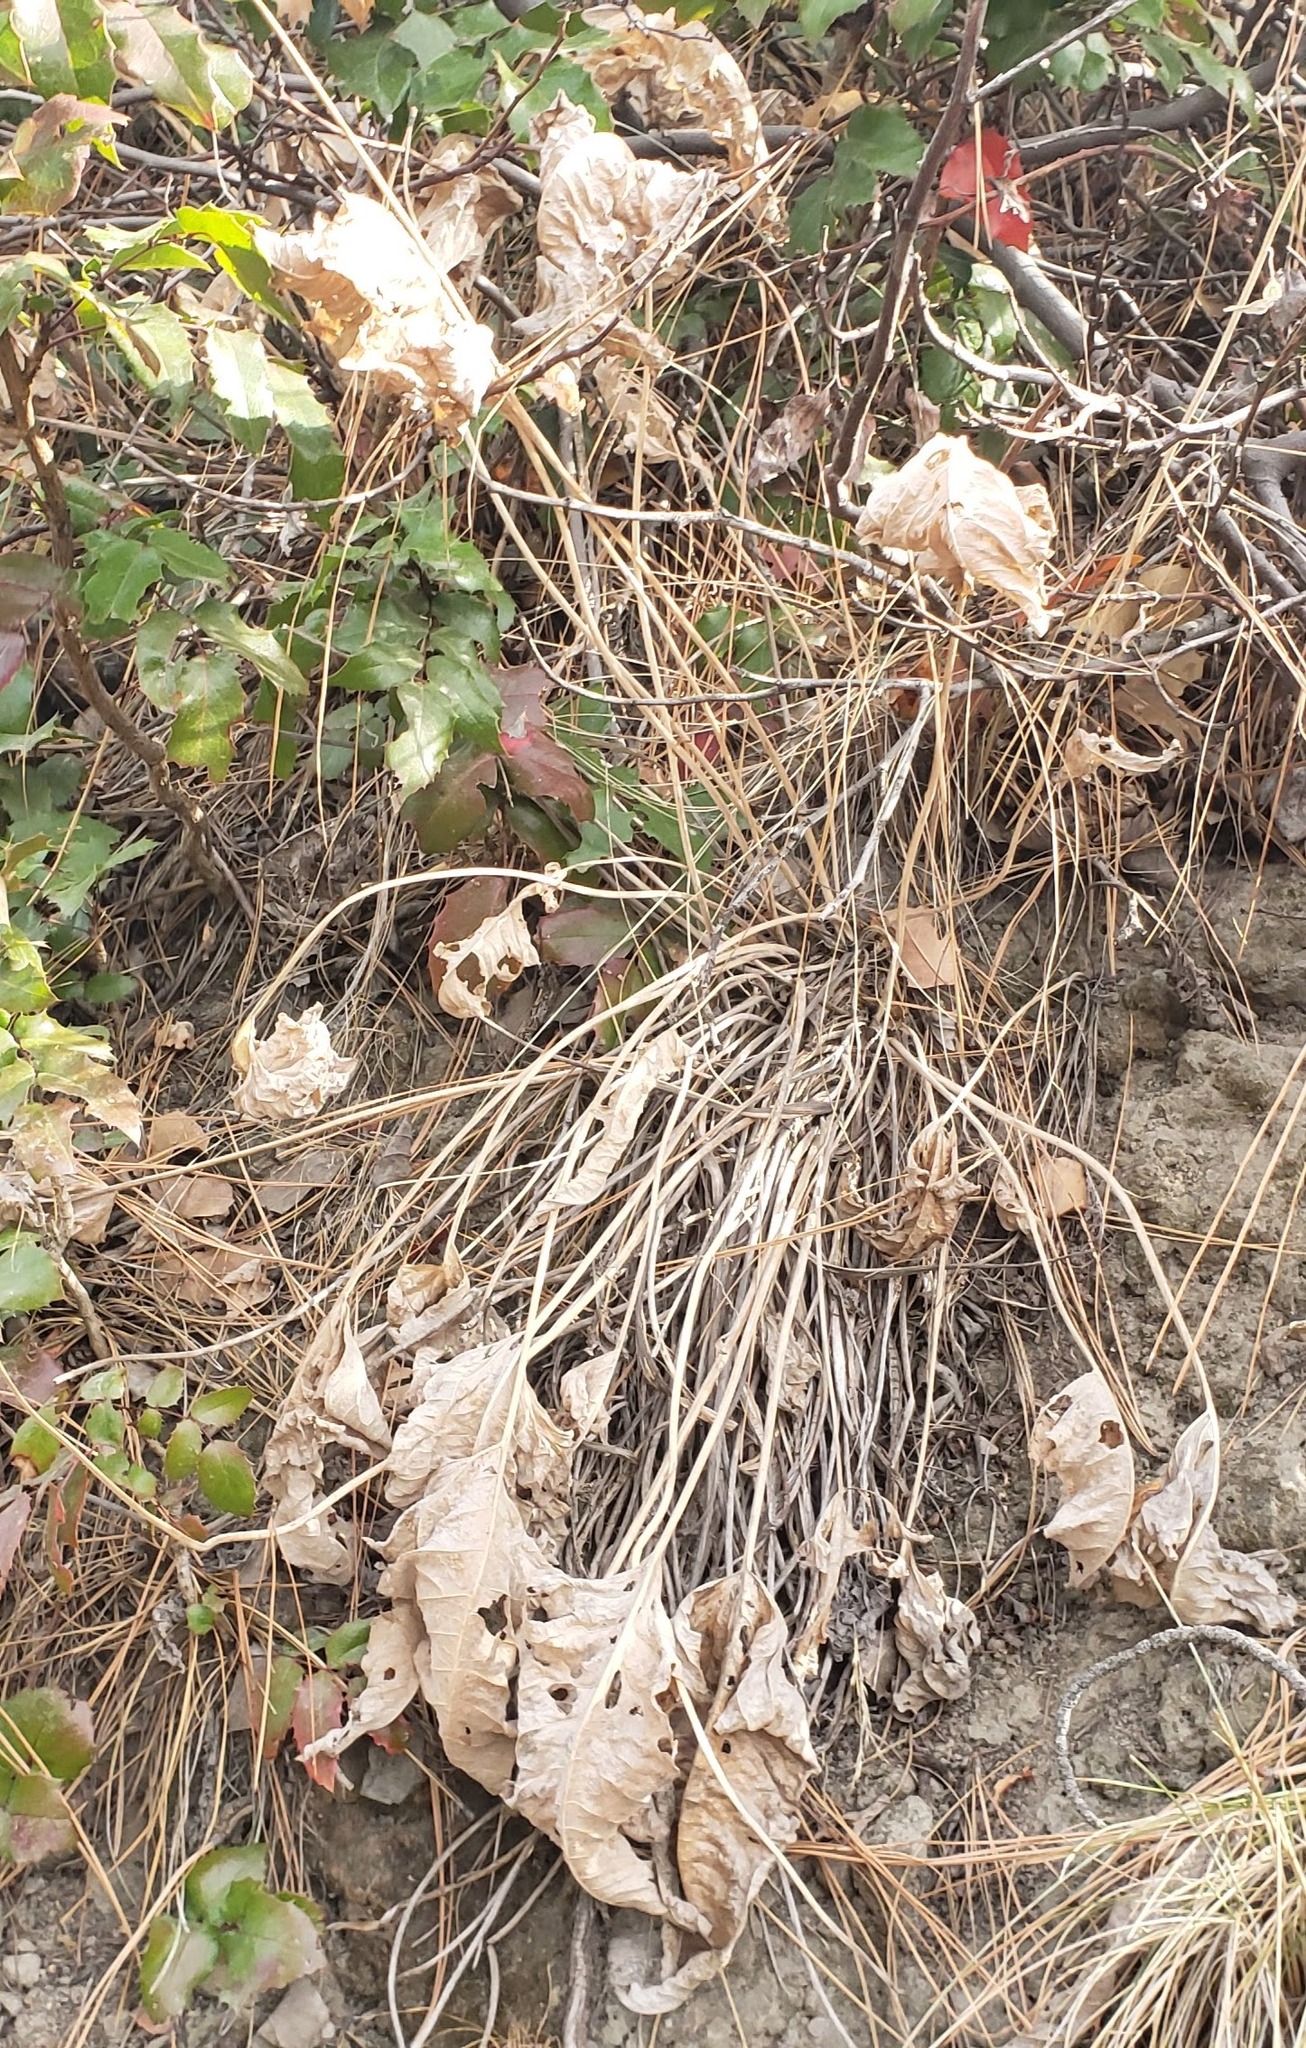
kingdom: Plantae
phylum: Tracheophyta
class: Magnoliopsida
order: Asterales
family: Asteraceae
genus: Wyethia
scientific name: Wyethia sagittata
